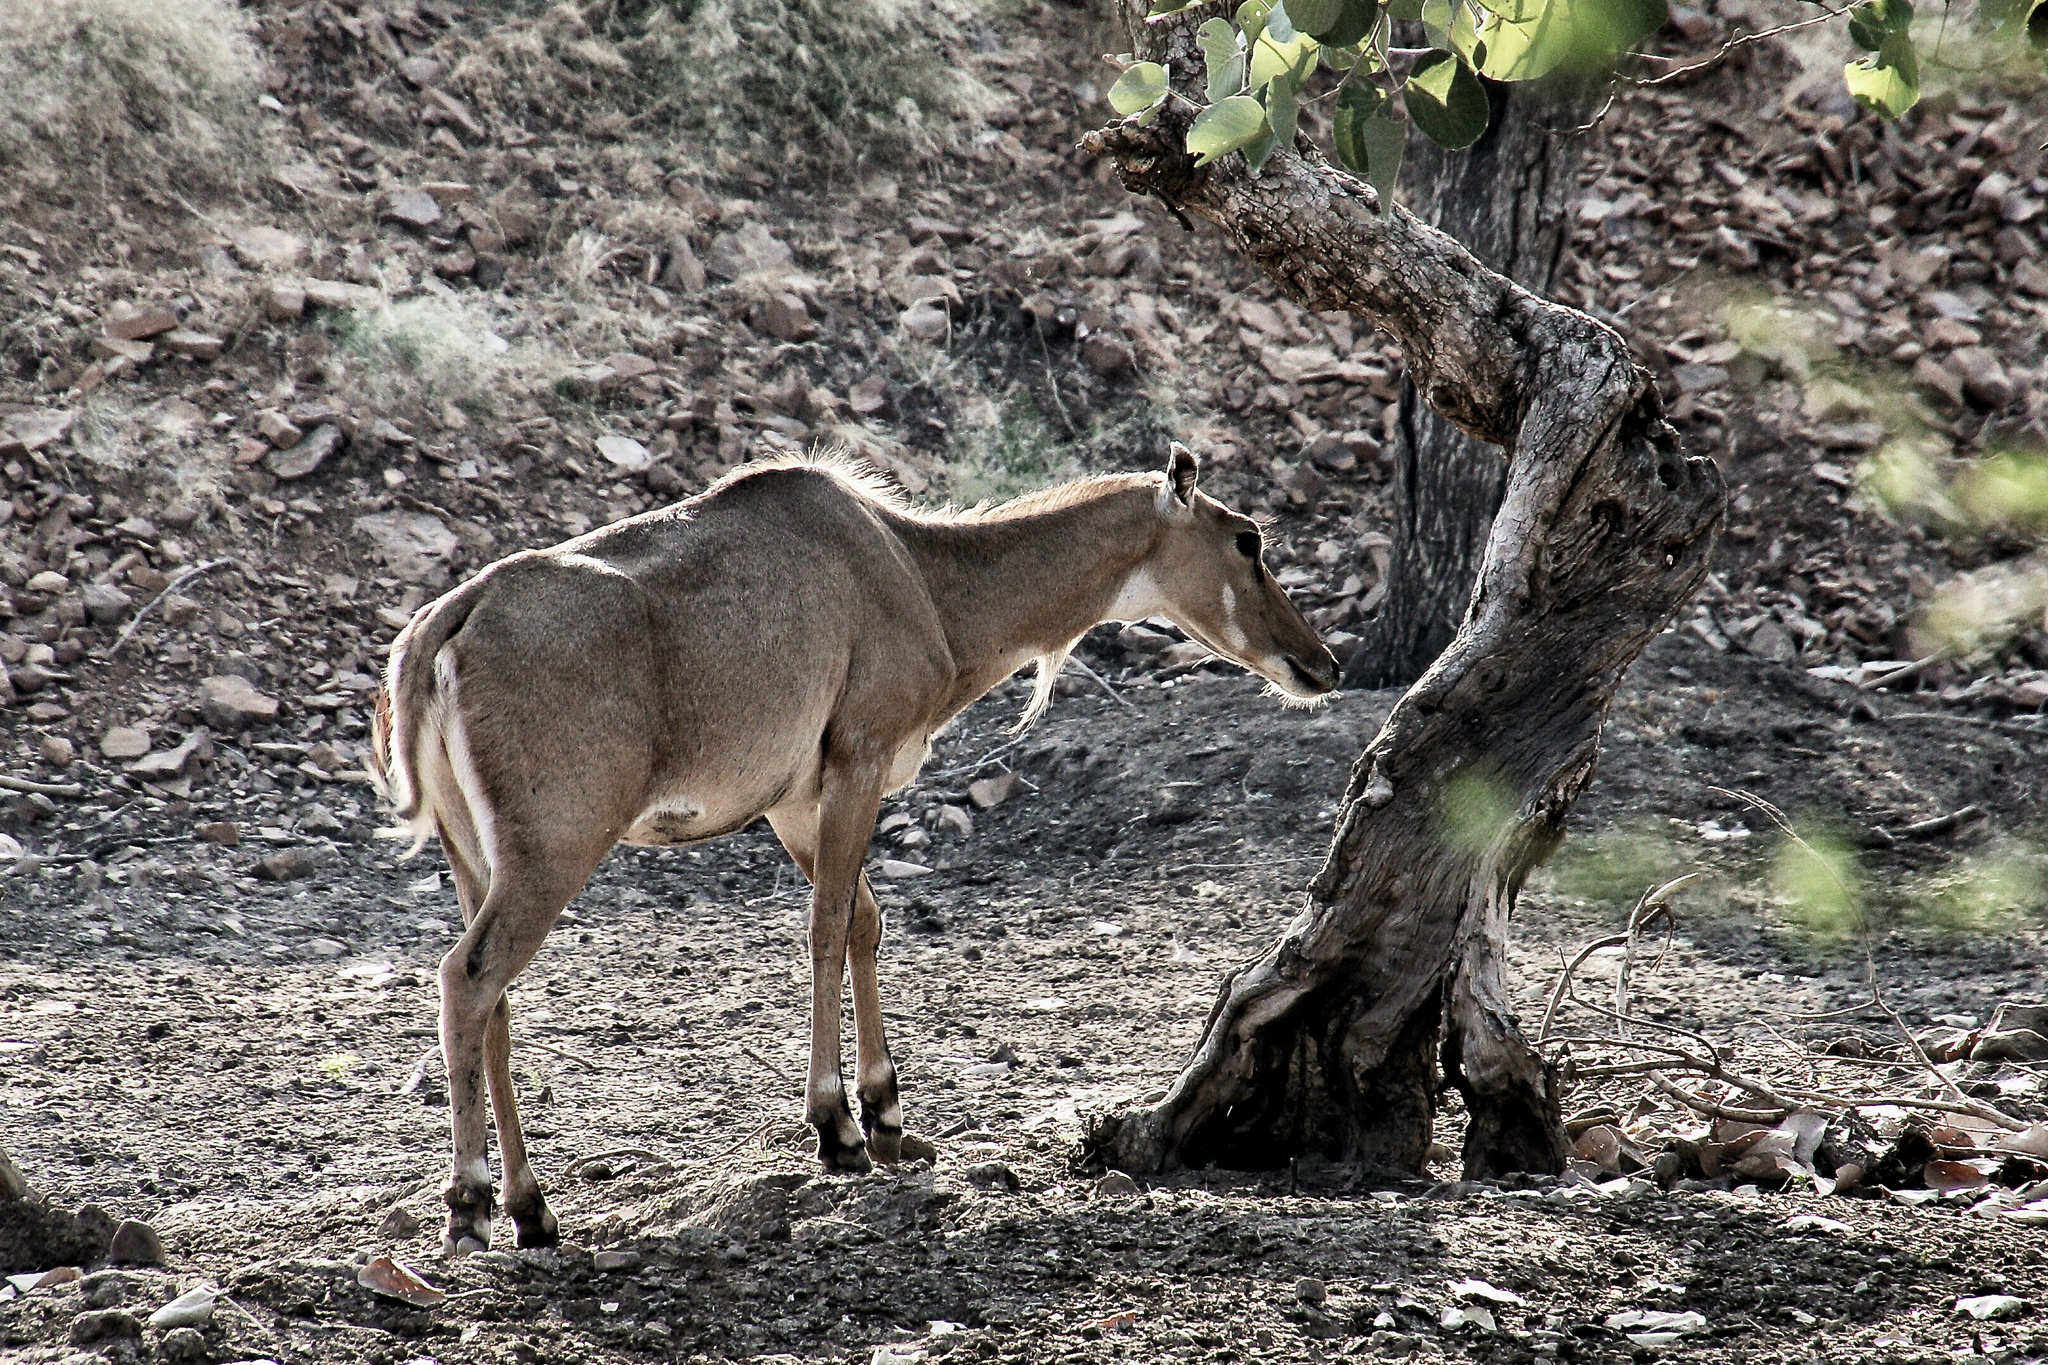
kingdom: Animalia
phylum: Chordata
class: Mammalia
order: Artiodactyla
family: Bovidae
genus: Boselaphus
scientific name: Boselaphus tragocamelus
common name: Nilgai
